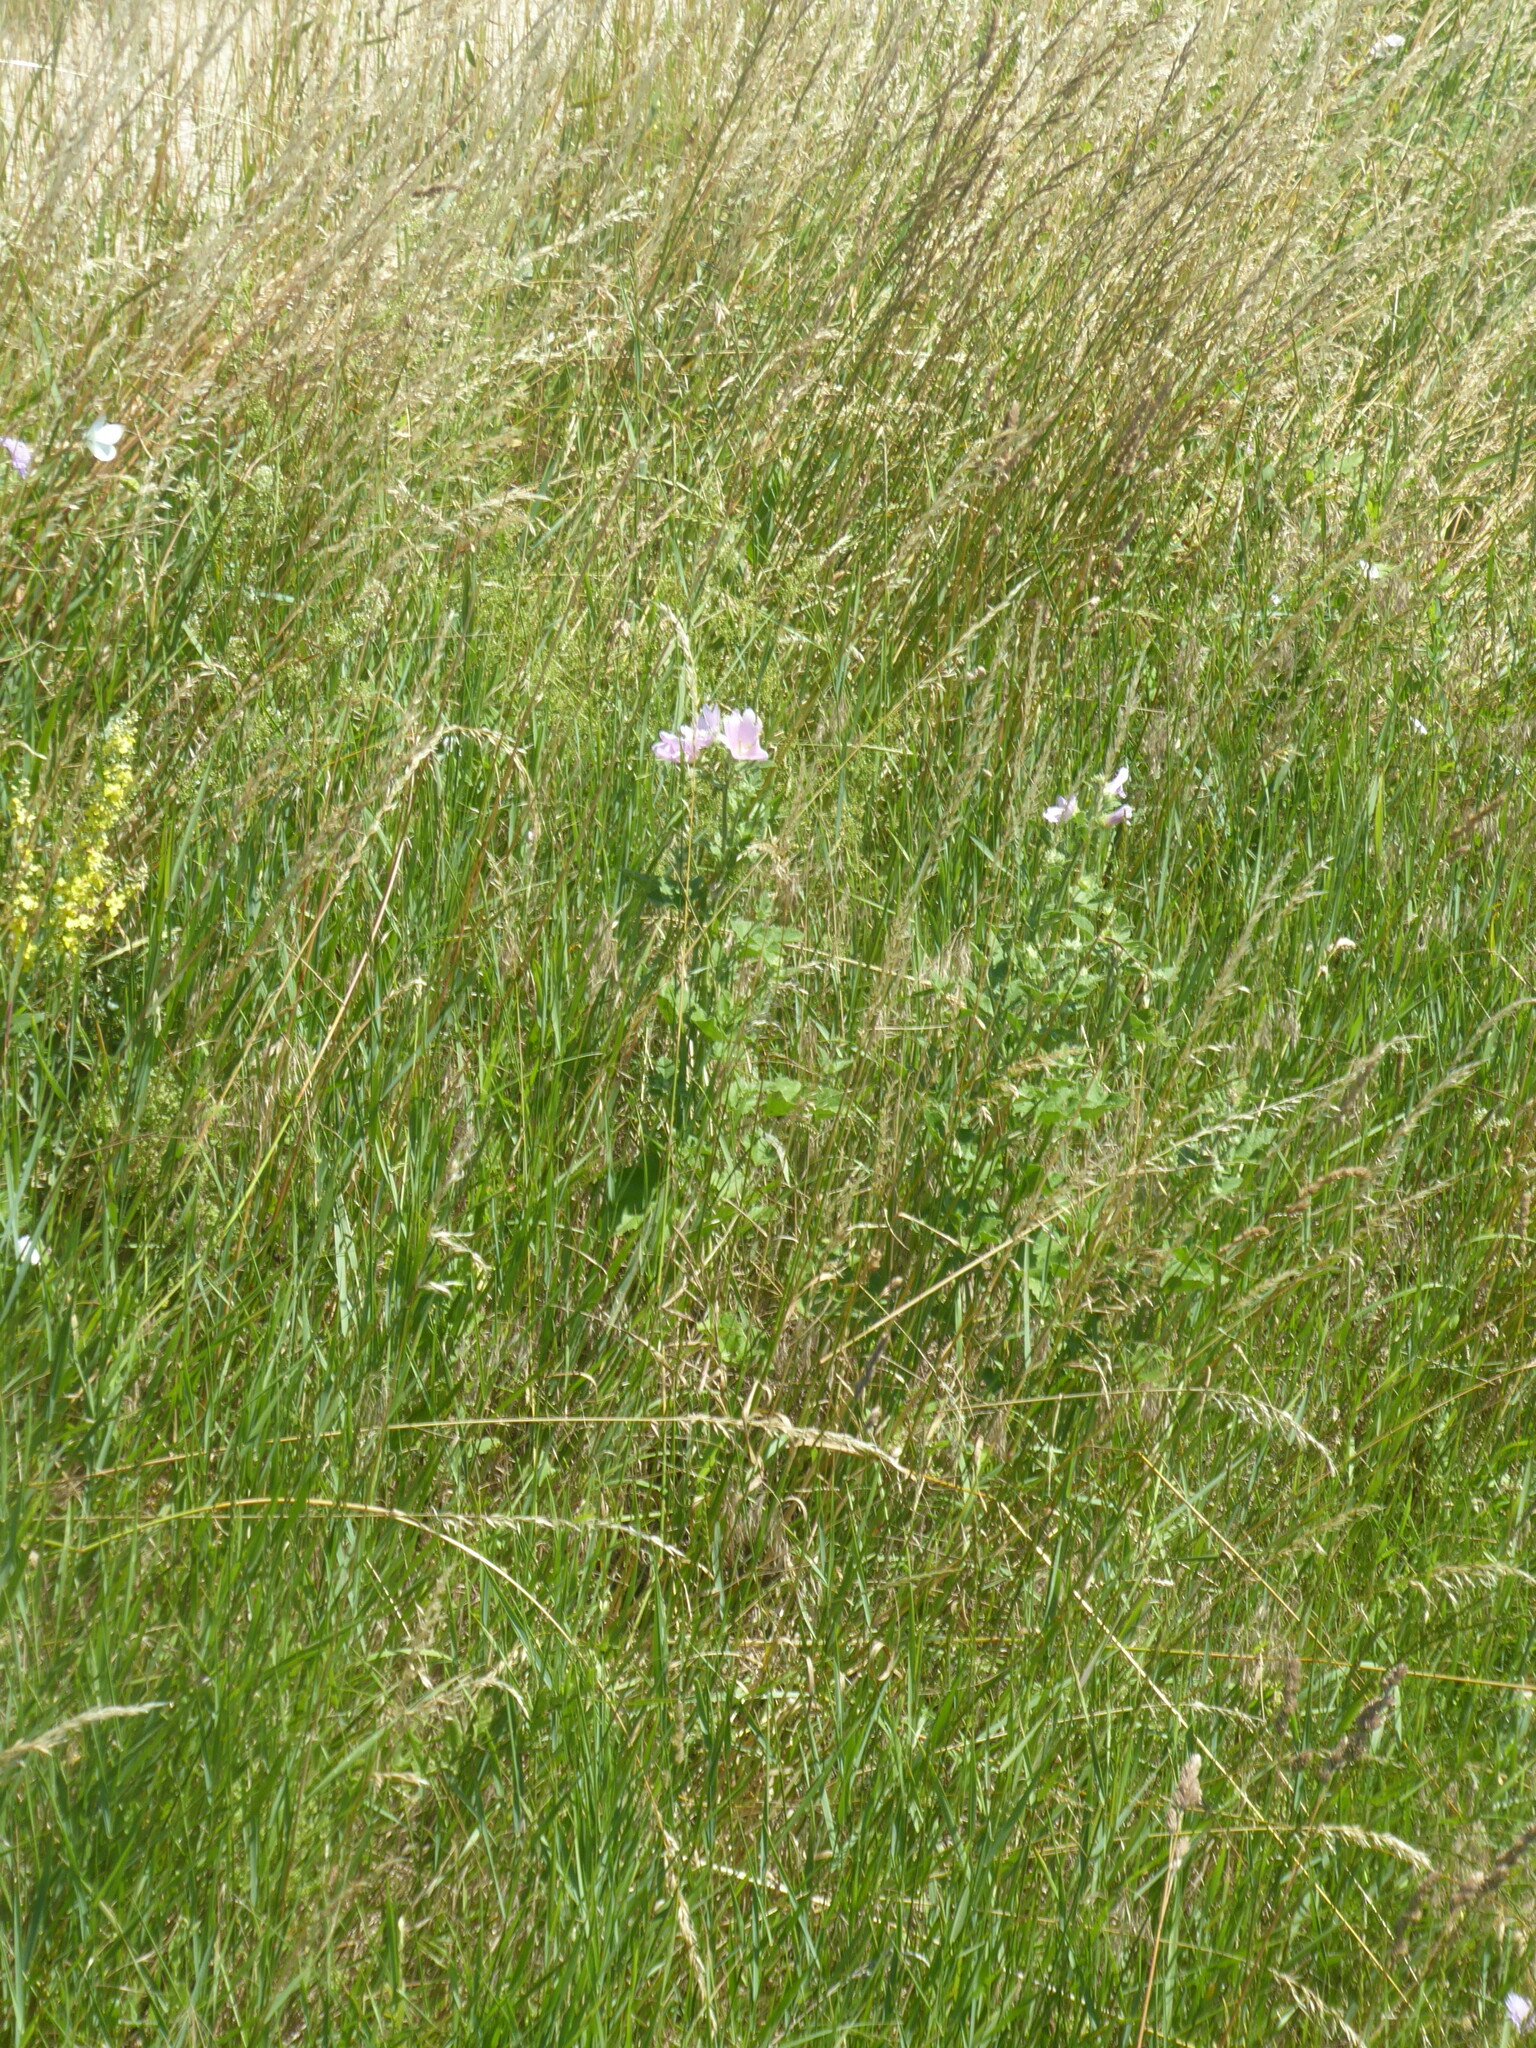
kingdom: Plantae
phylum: Tracheophyta
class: Magnoliopsida
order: Malvales
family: Malvaceae
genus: Malva
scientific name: Malva thuringiaca
